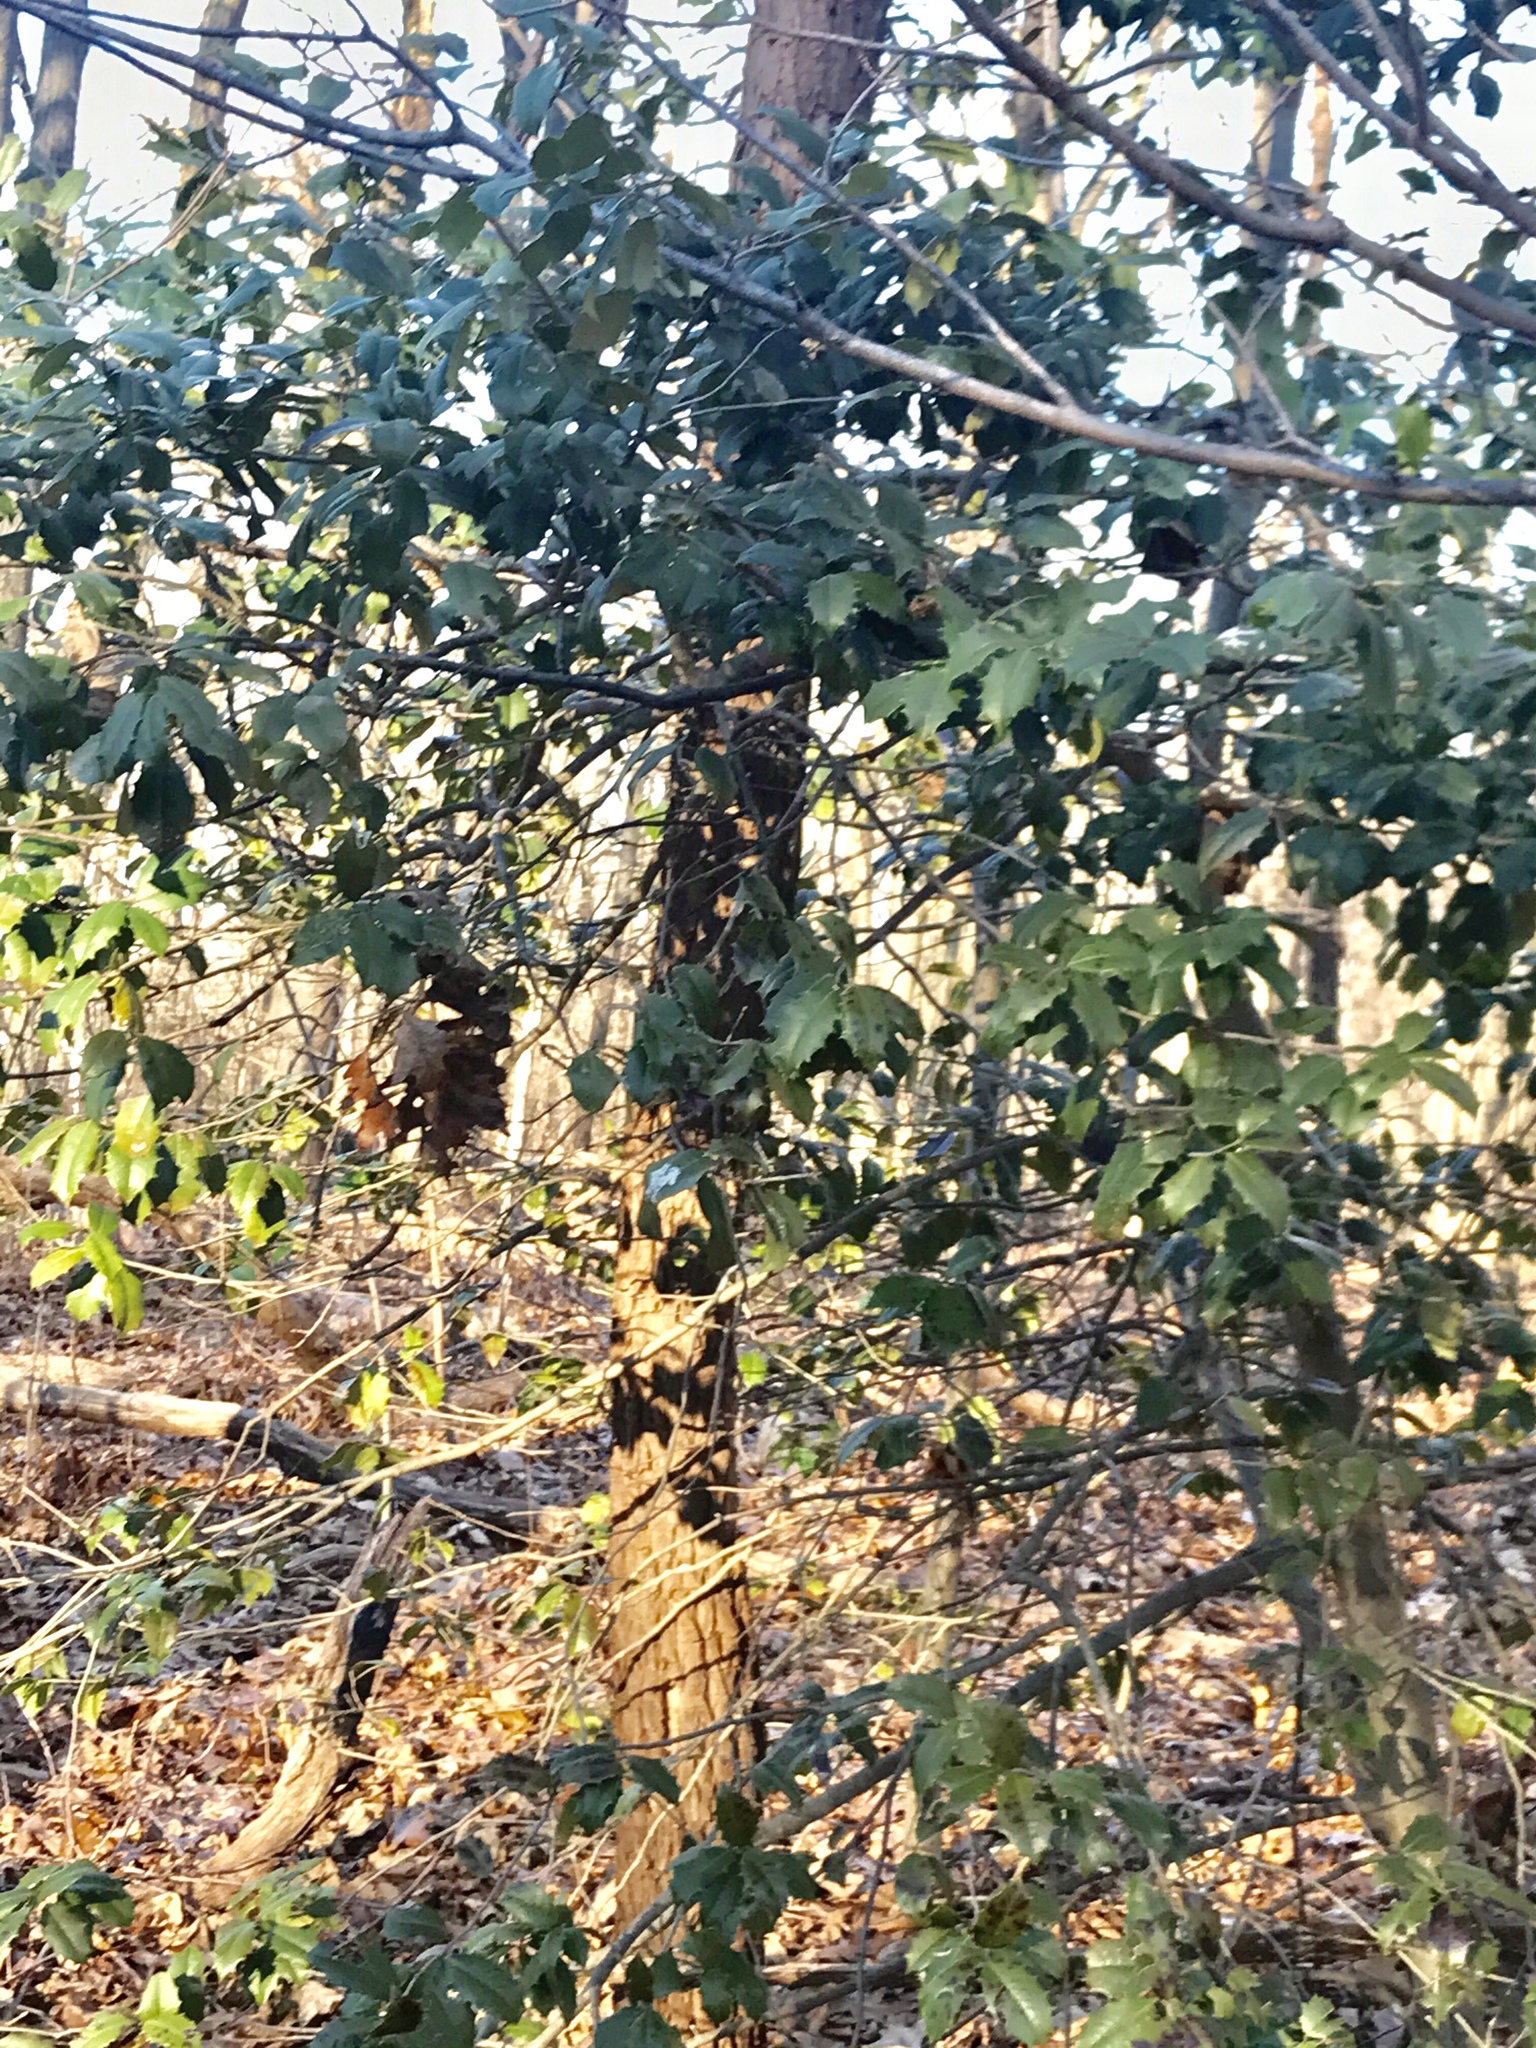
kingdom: Plantae
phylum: Tracheophyta
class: Magnoliopsida
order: Aquifoliales
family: Aquifoliaceae
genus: Ilex
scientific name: Ilex opaca
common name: American holly
